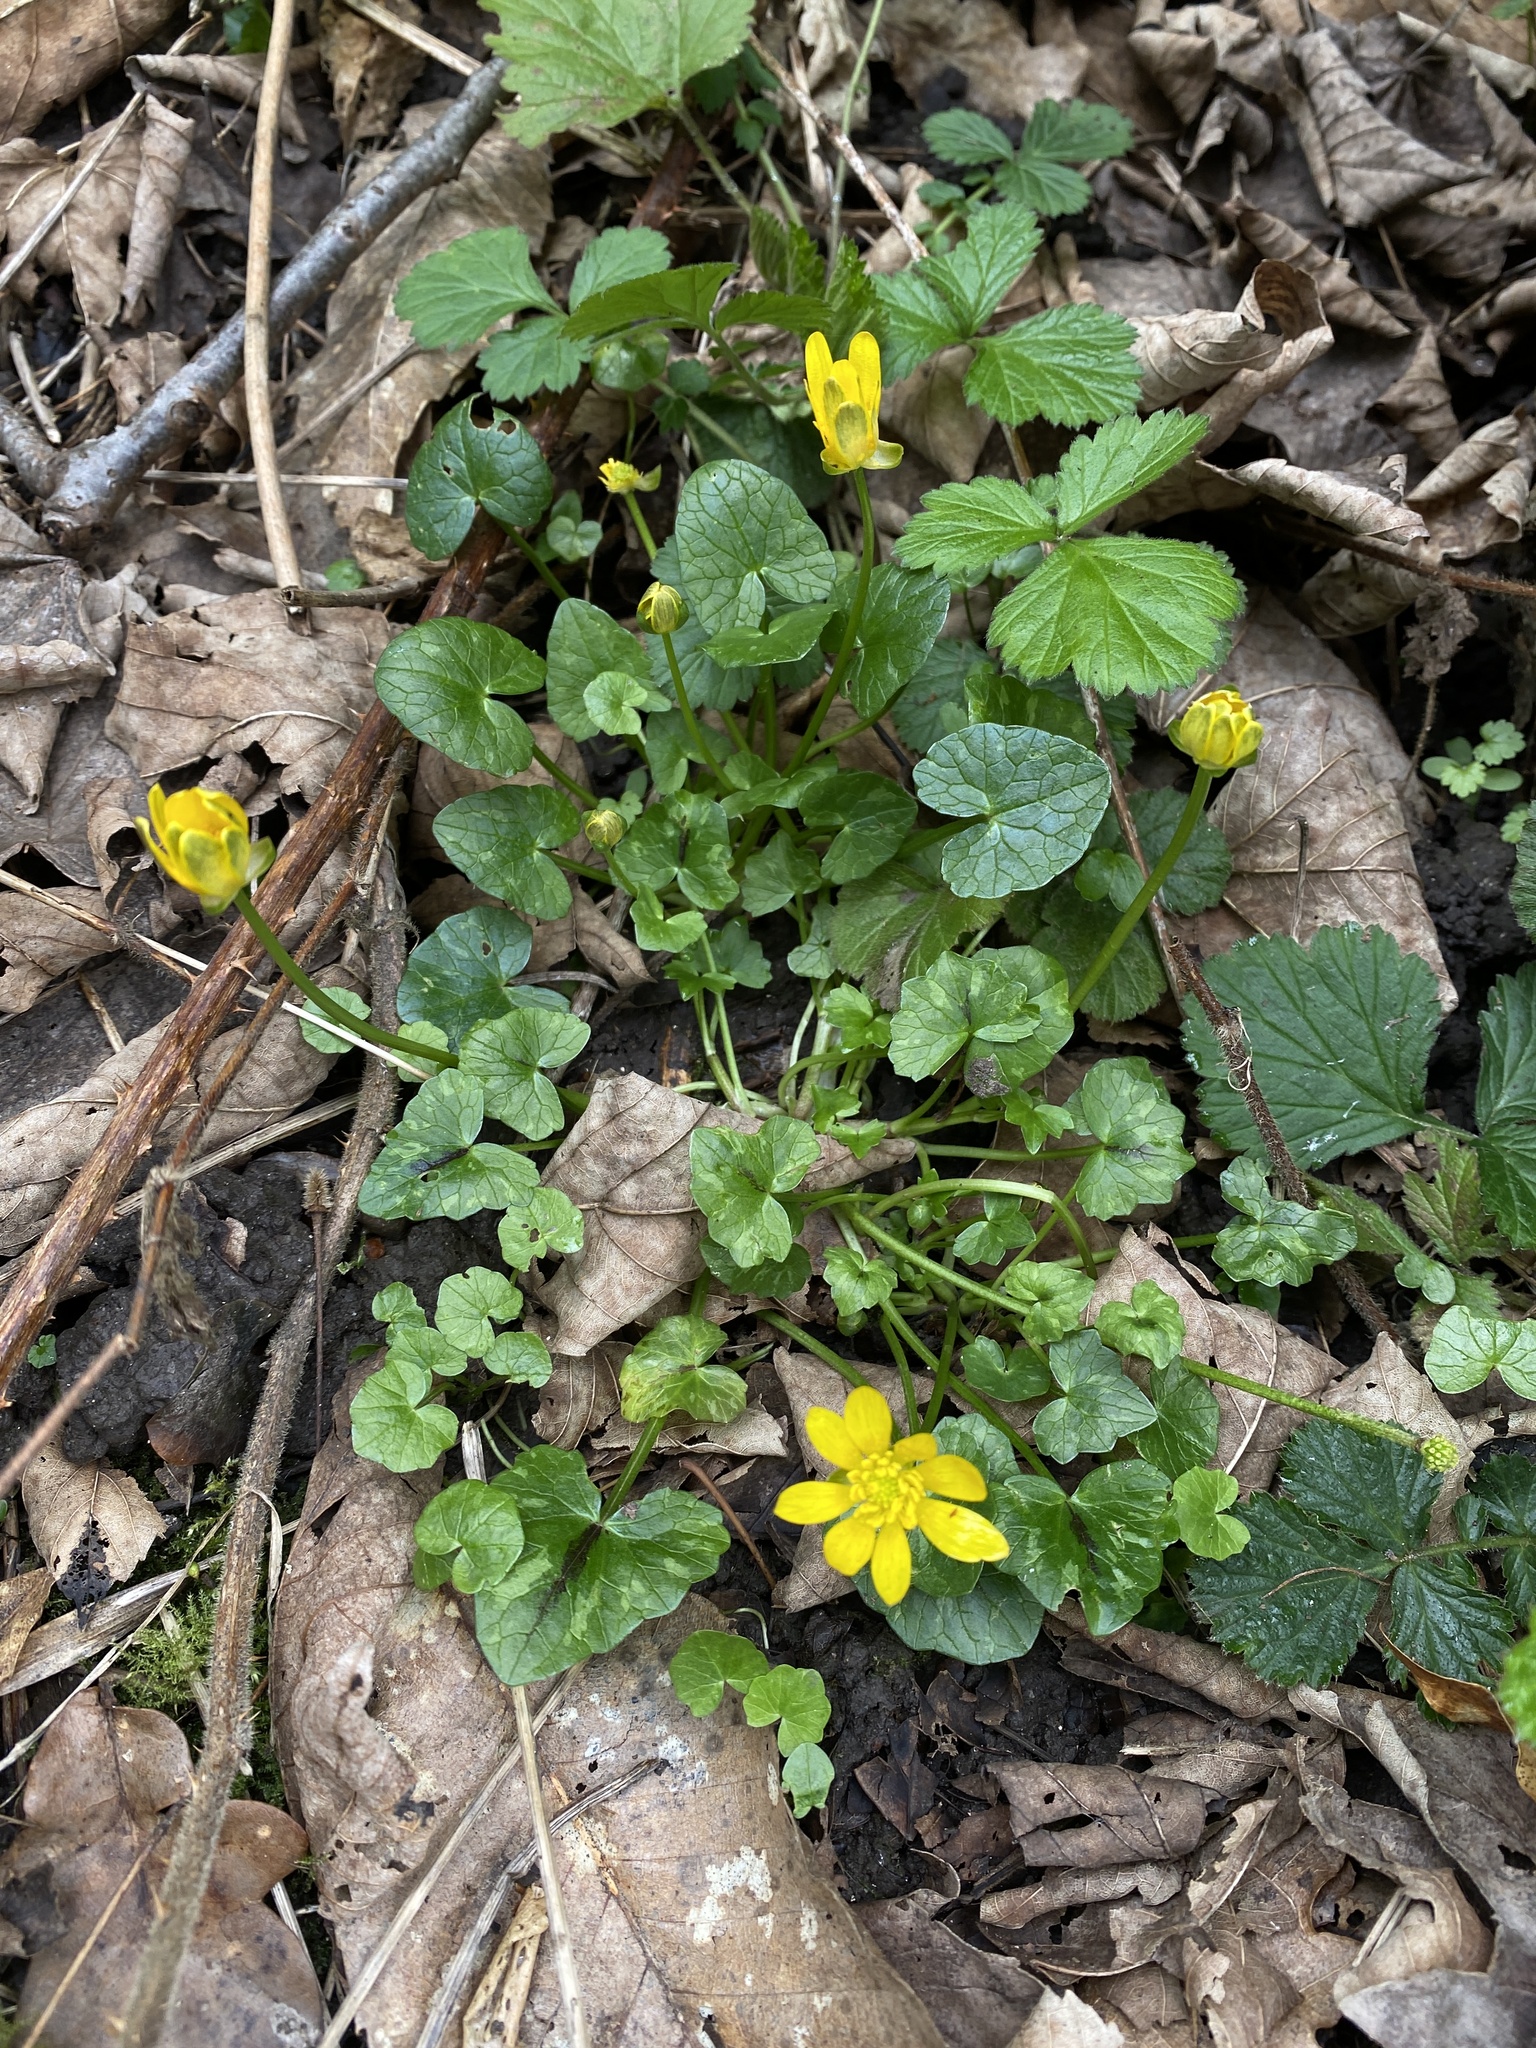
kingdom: Plantae
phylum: Tracheophyta
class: Magnoliopsida
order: Ranunculales
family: Ranunculaceae
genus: Ficaria
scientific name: Ficaria verna
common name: Lesser celandine
